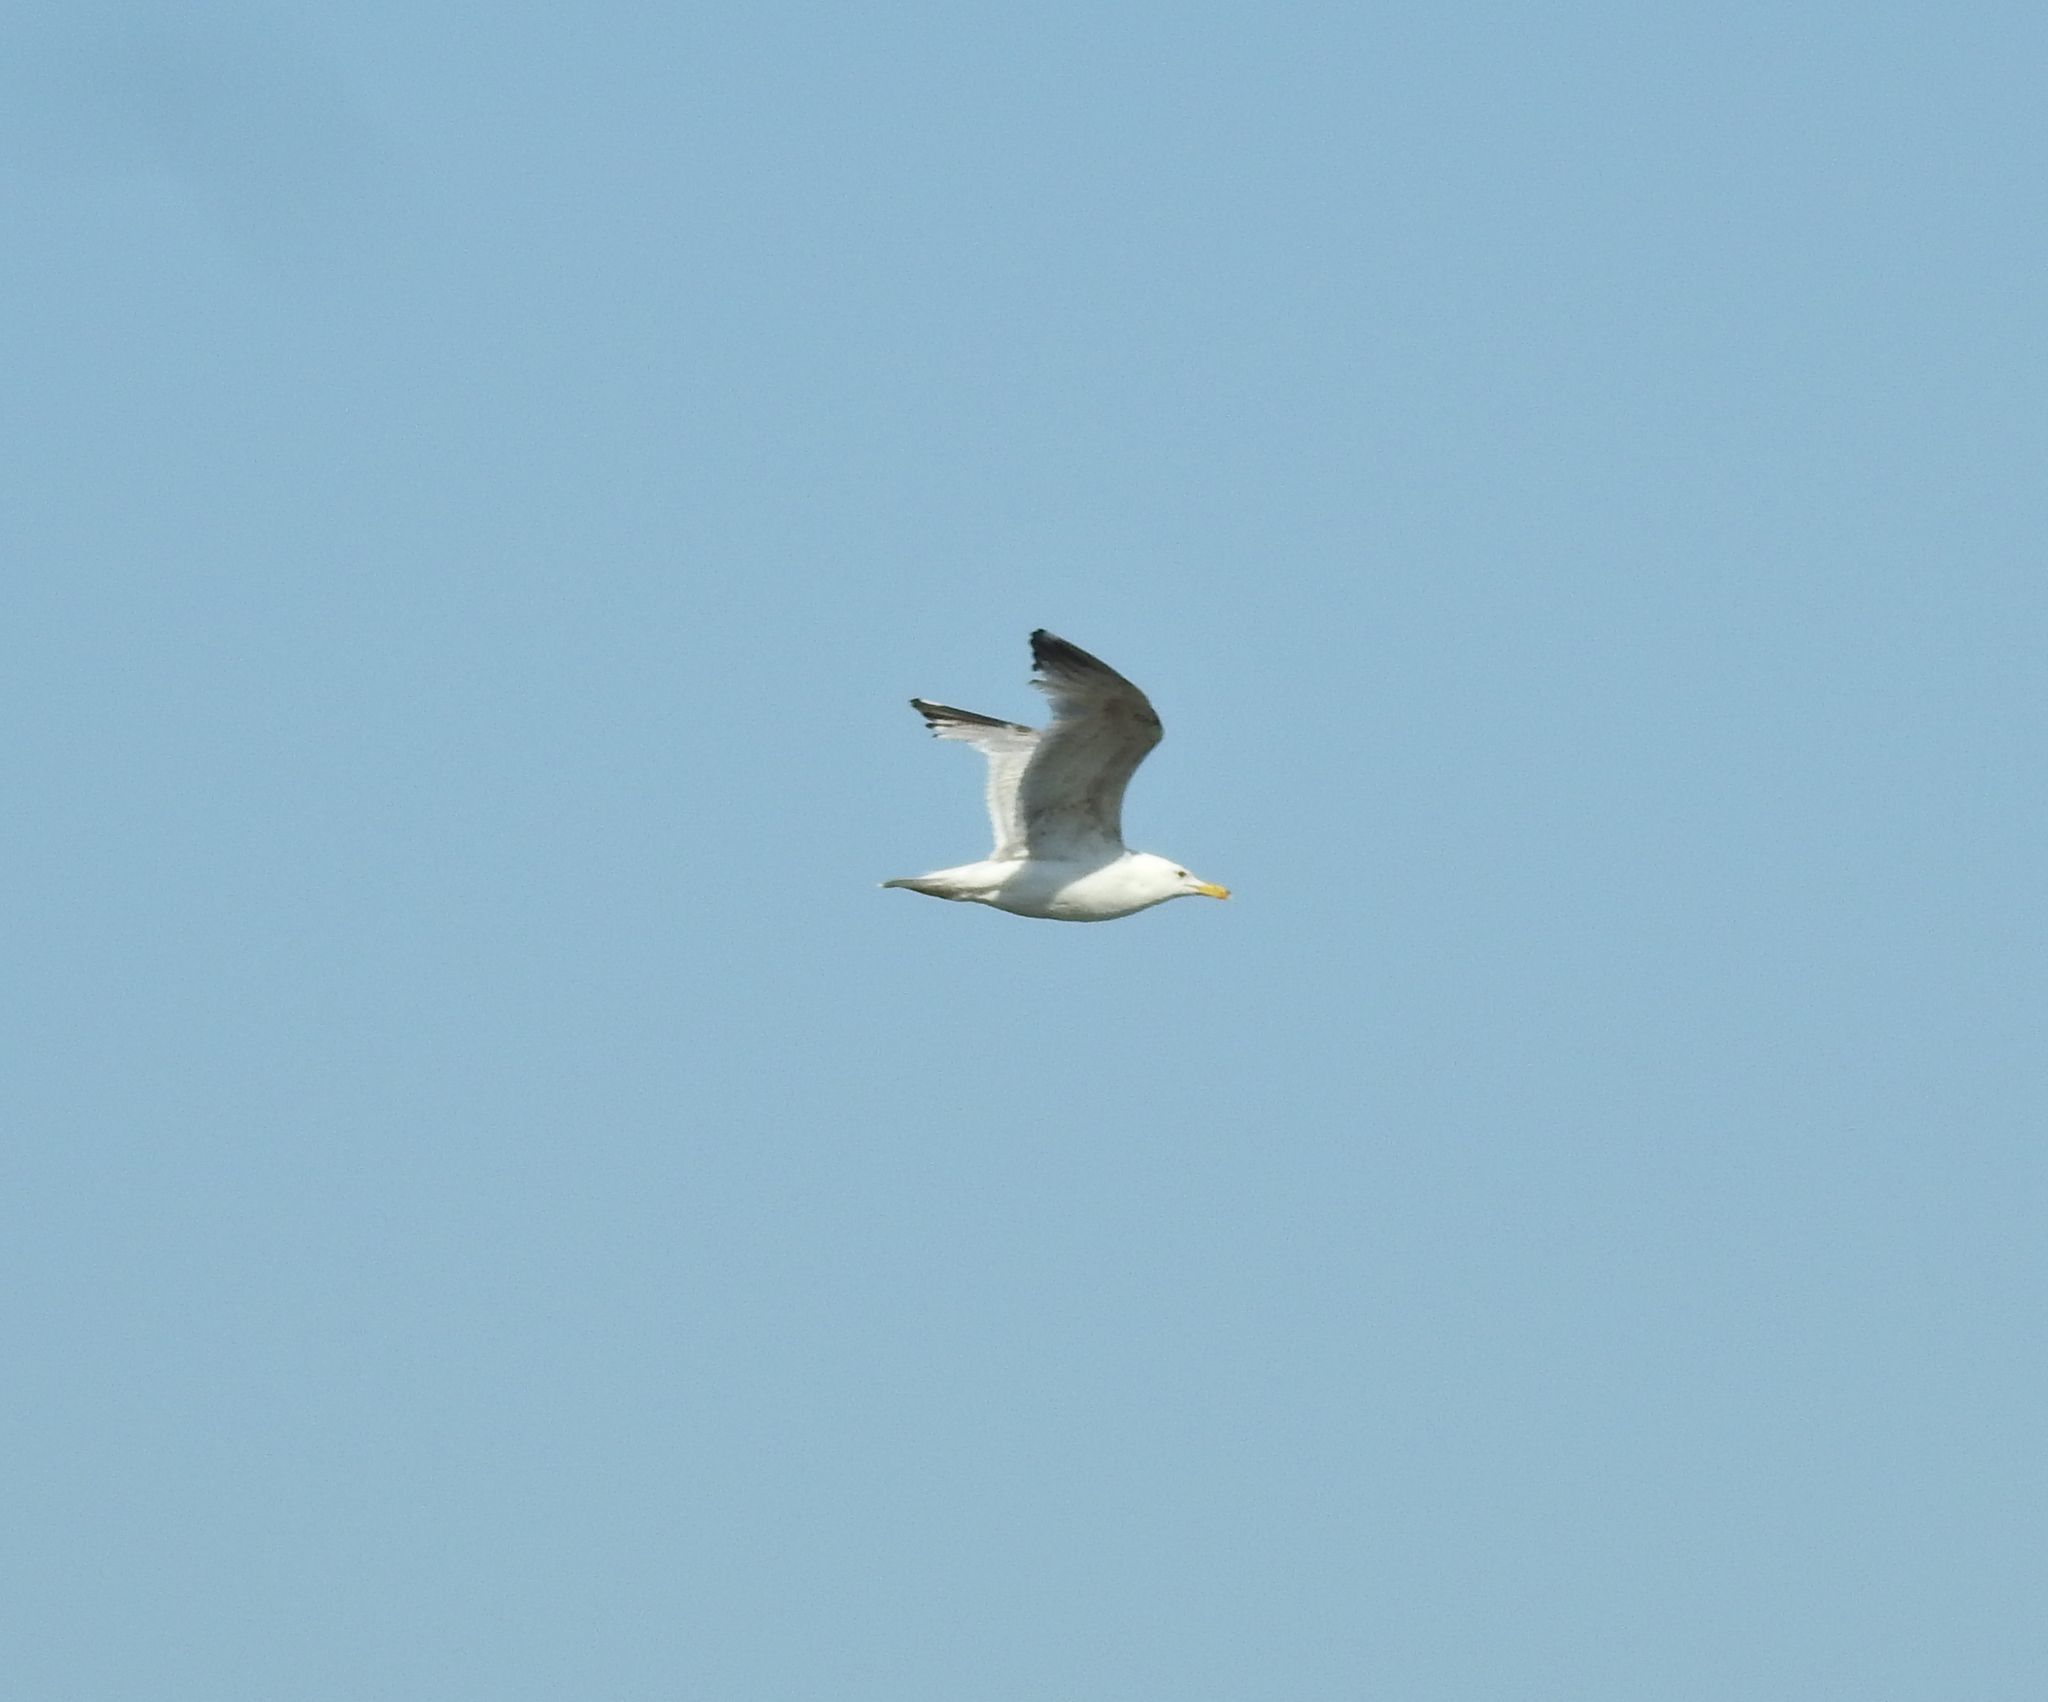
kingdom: Animalia
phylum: Chordata
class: Aves
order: Charadriiformes
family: Laridae
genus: Larus
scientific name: Larus argentatus
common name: Herring gull
